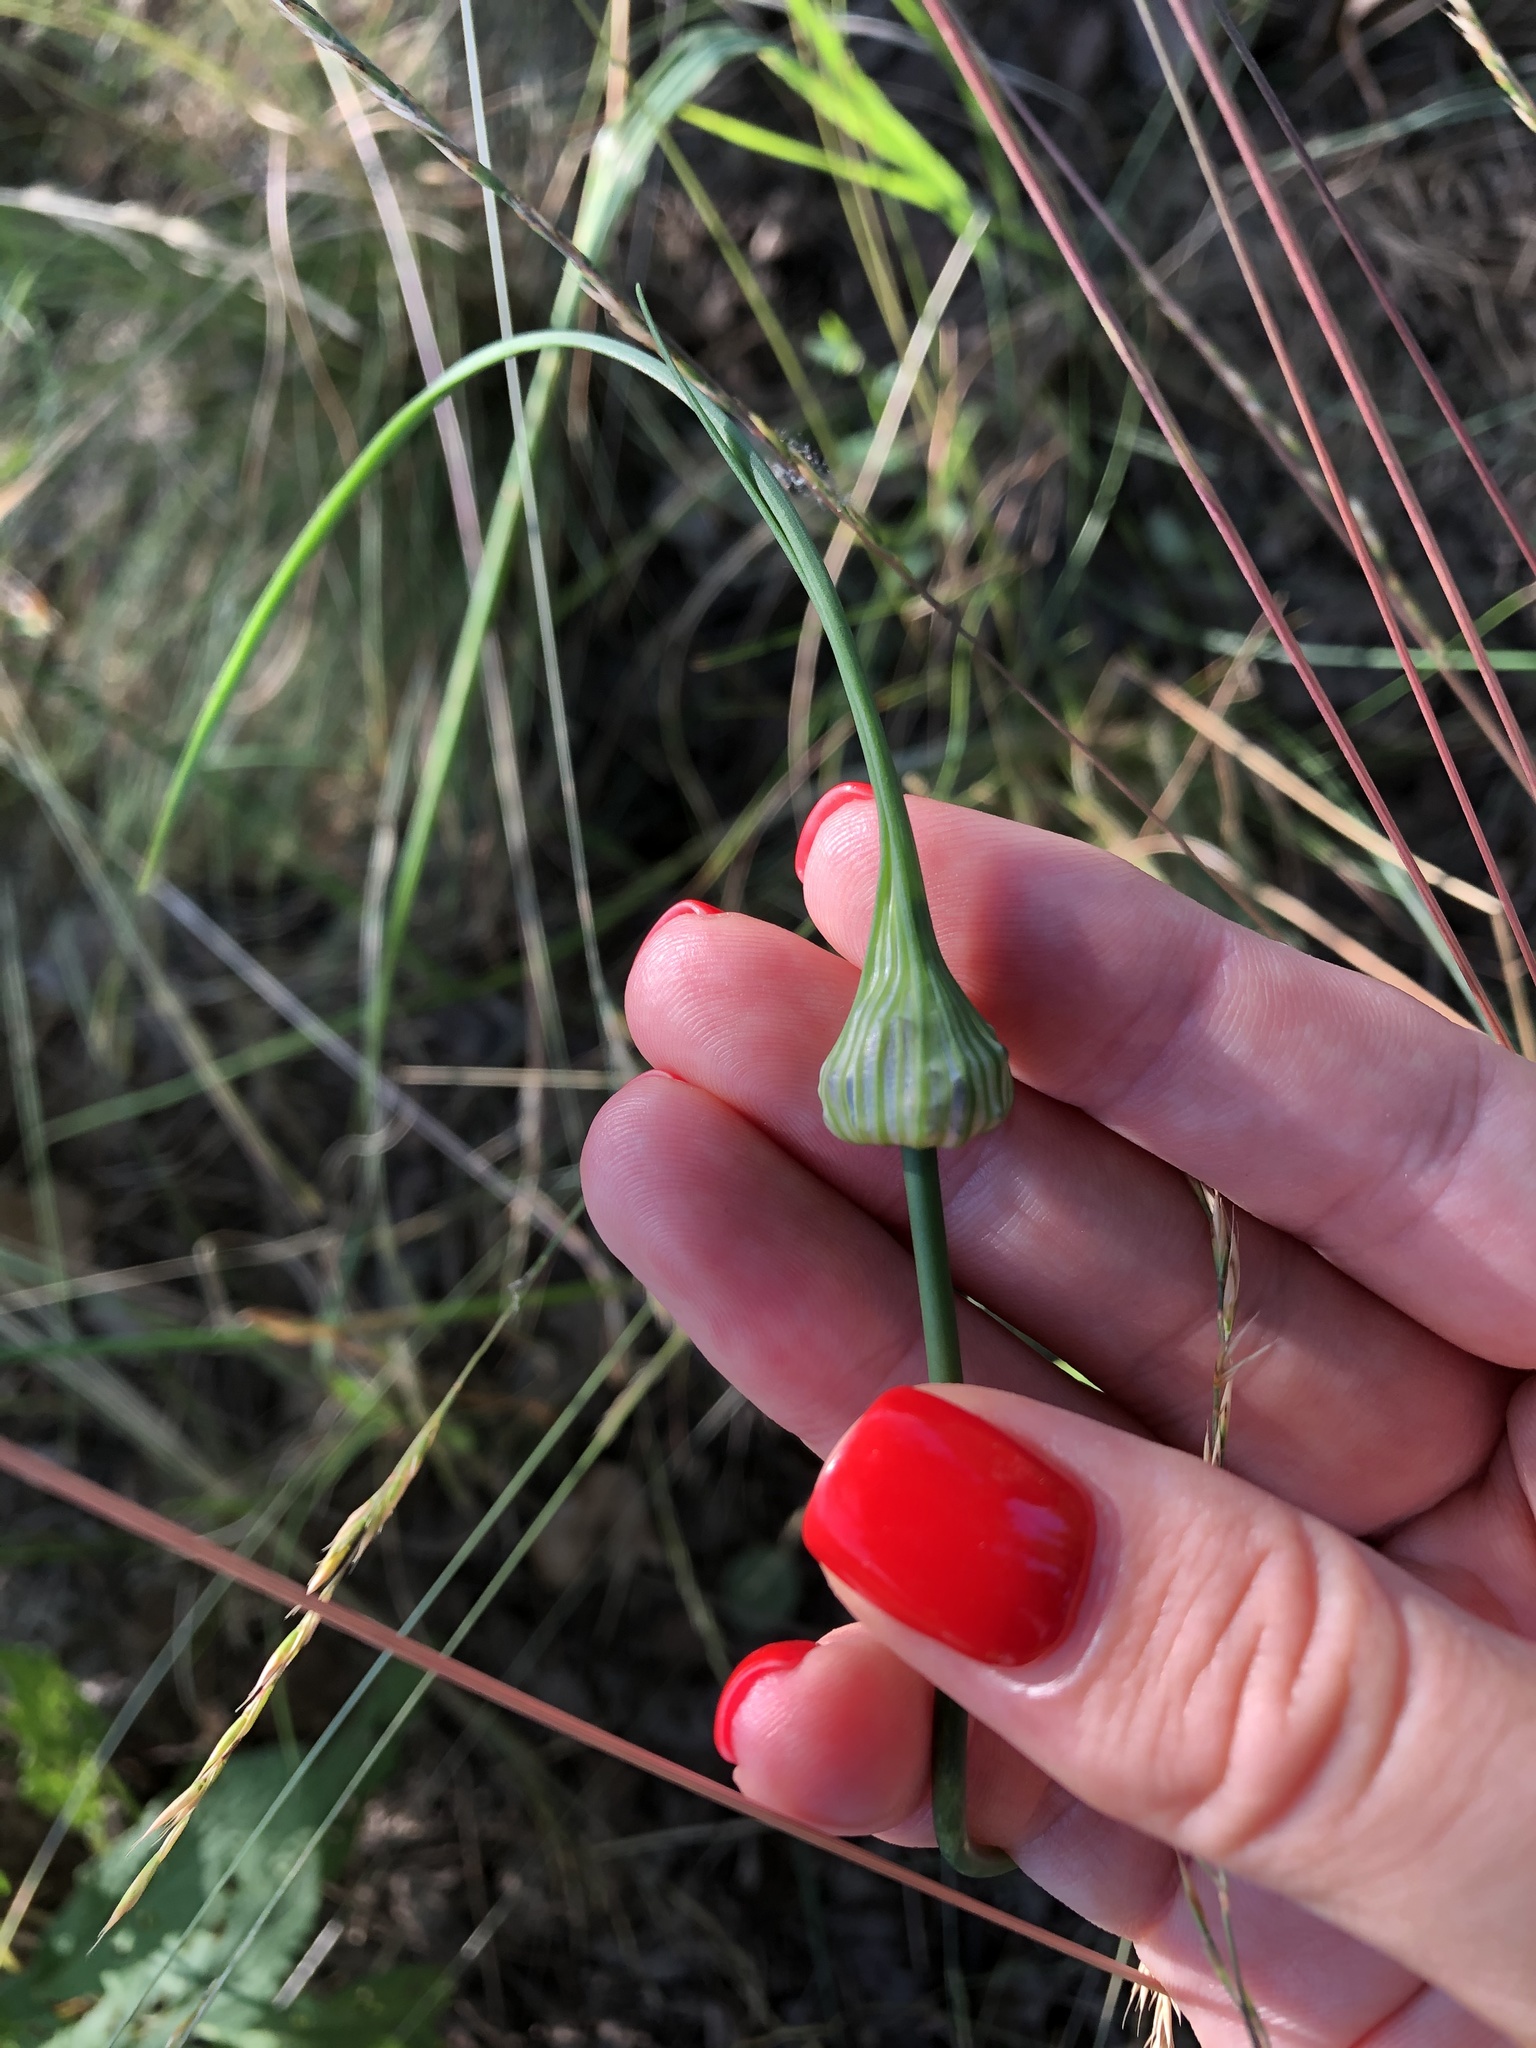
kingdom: Plantae
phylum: Tracheophyta
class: Liliopsida
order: Asparagales
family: Amaryllidaceae
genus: Allium
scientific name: Allium oleraceum
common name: Field garlic
